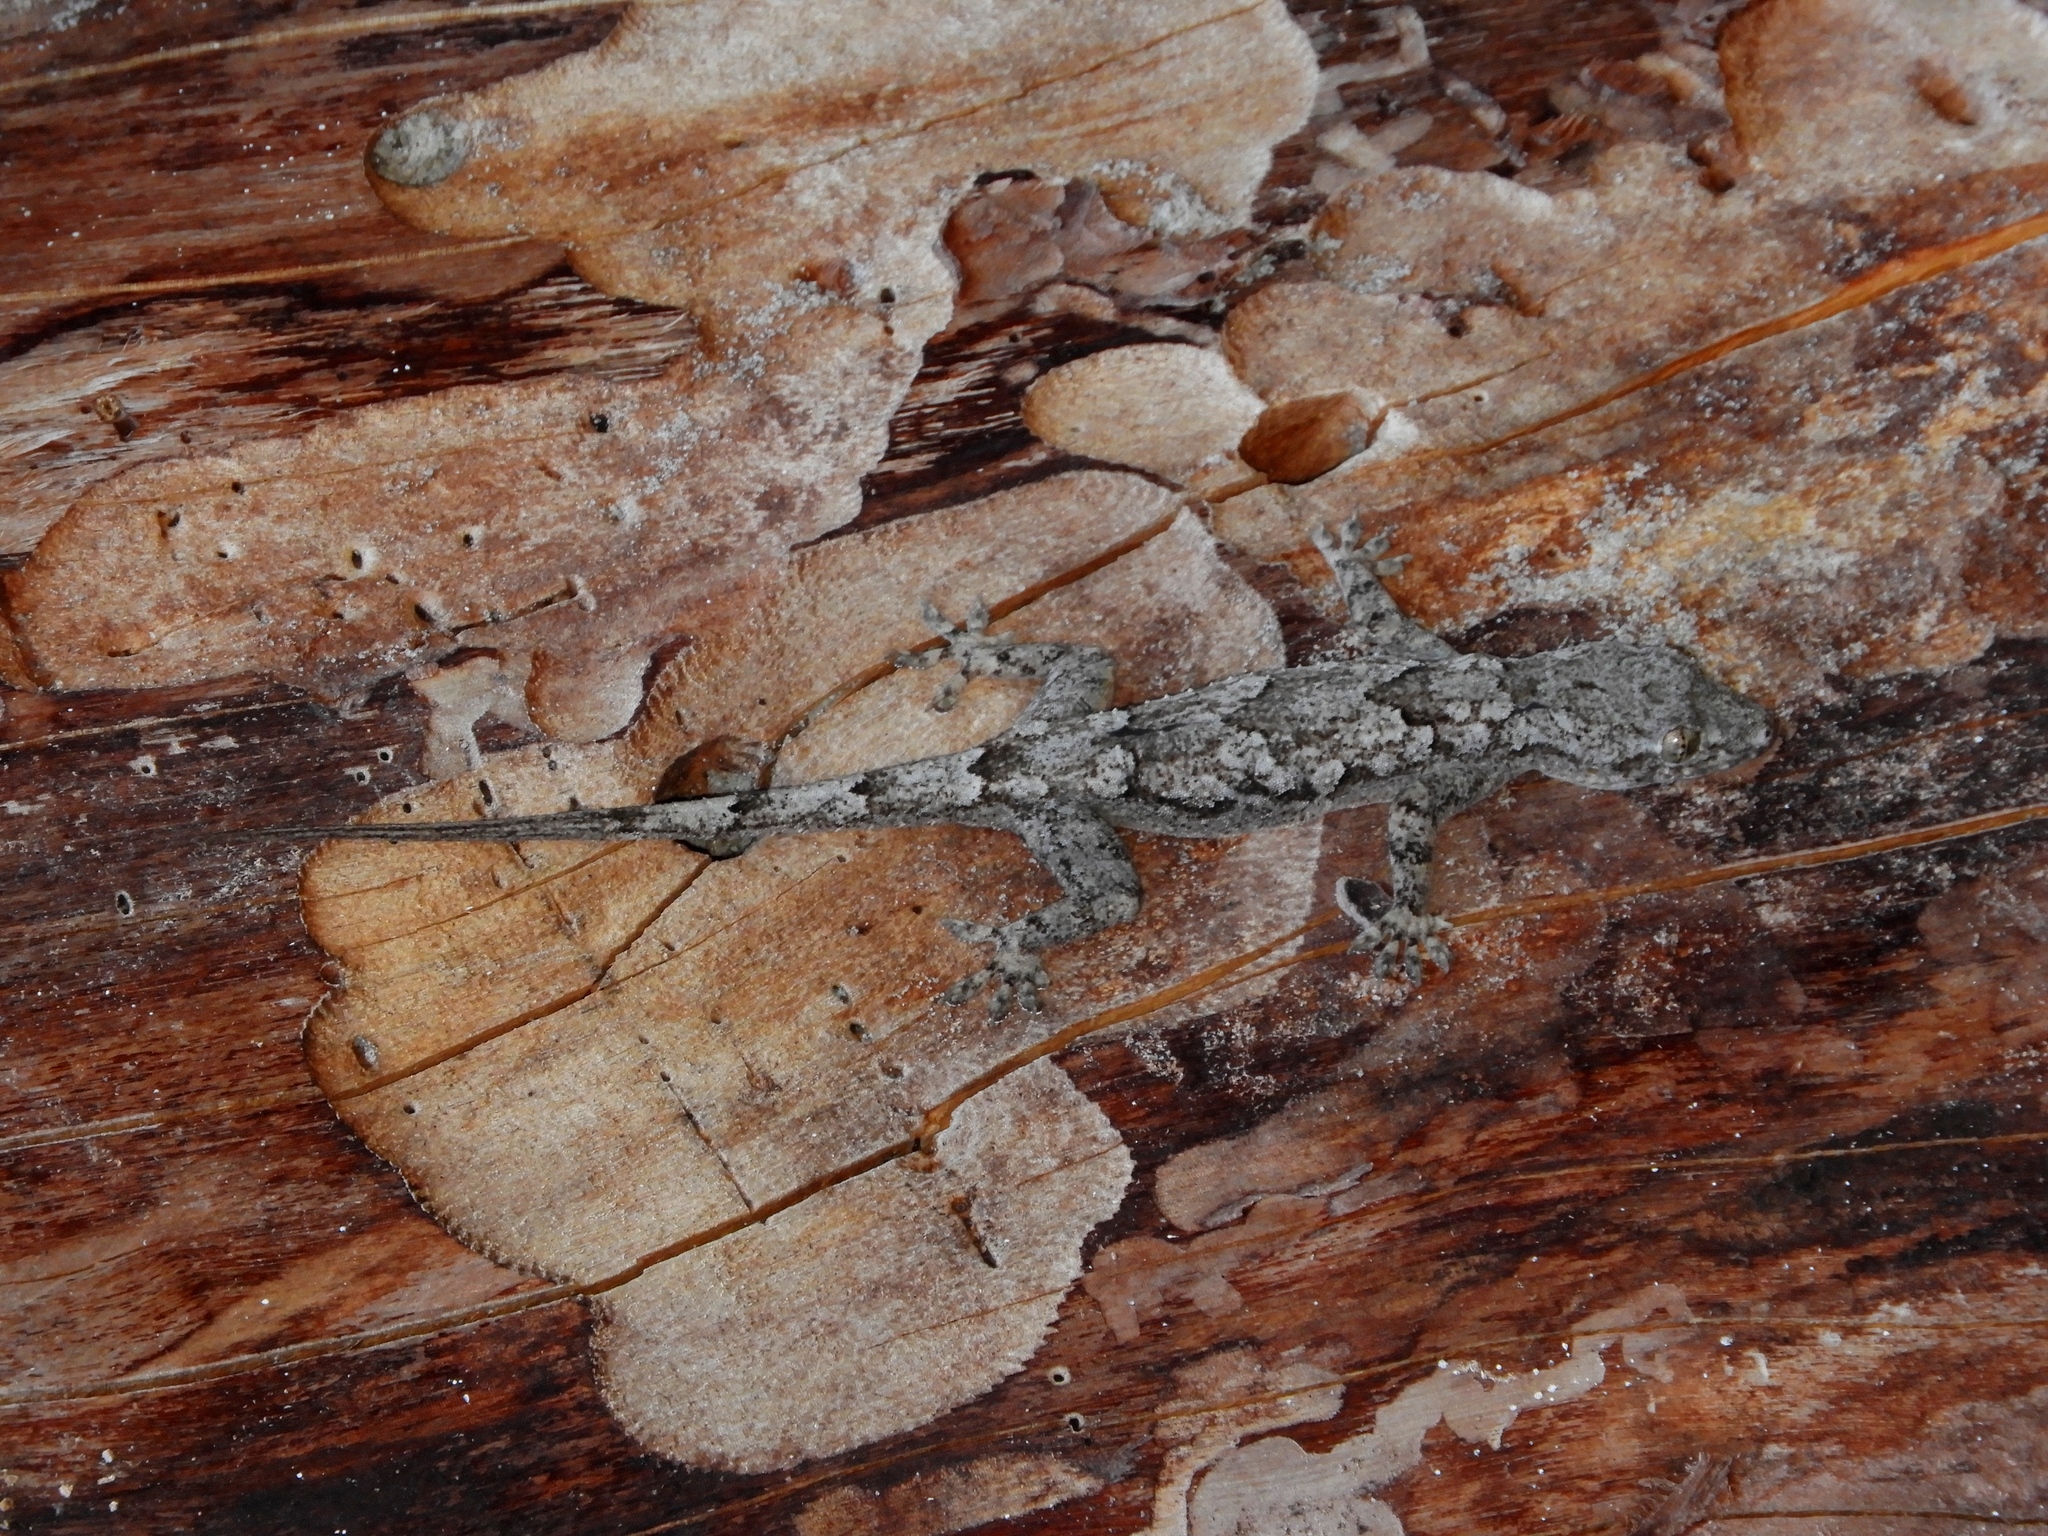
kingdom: Animalia
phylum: Chordata
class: Squamata
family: Gekkonidae
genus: Hemidactylus
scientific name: Hemidactylus platycephalus
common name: Baobab gecko
